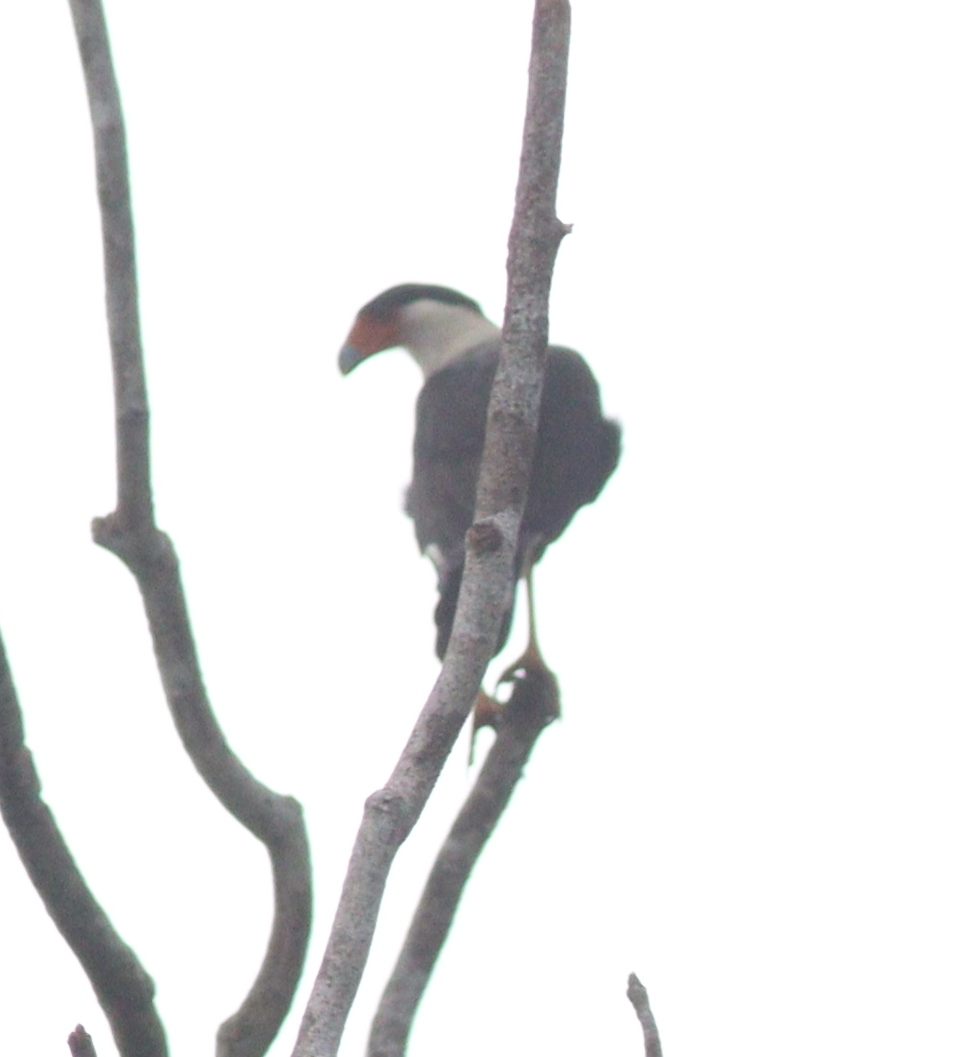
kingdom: Animalia
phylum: Chordata
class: Aves
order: Falconiformes
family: Falconidae
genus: Caracara
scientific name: Caracara plancus
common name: Southern caracara
